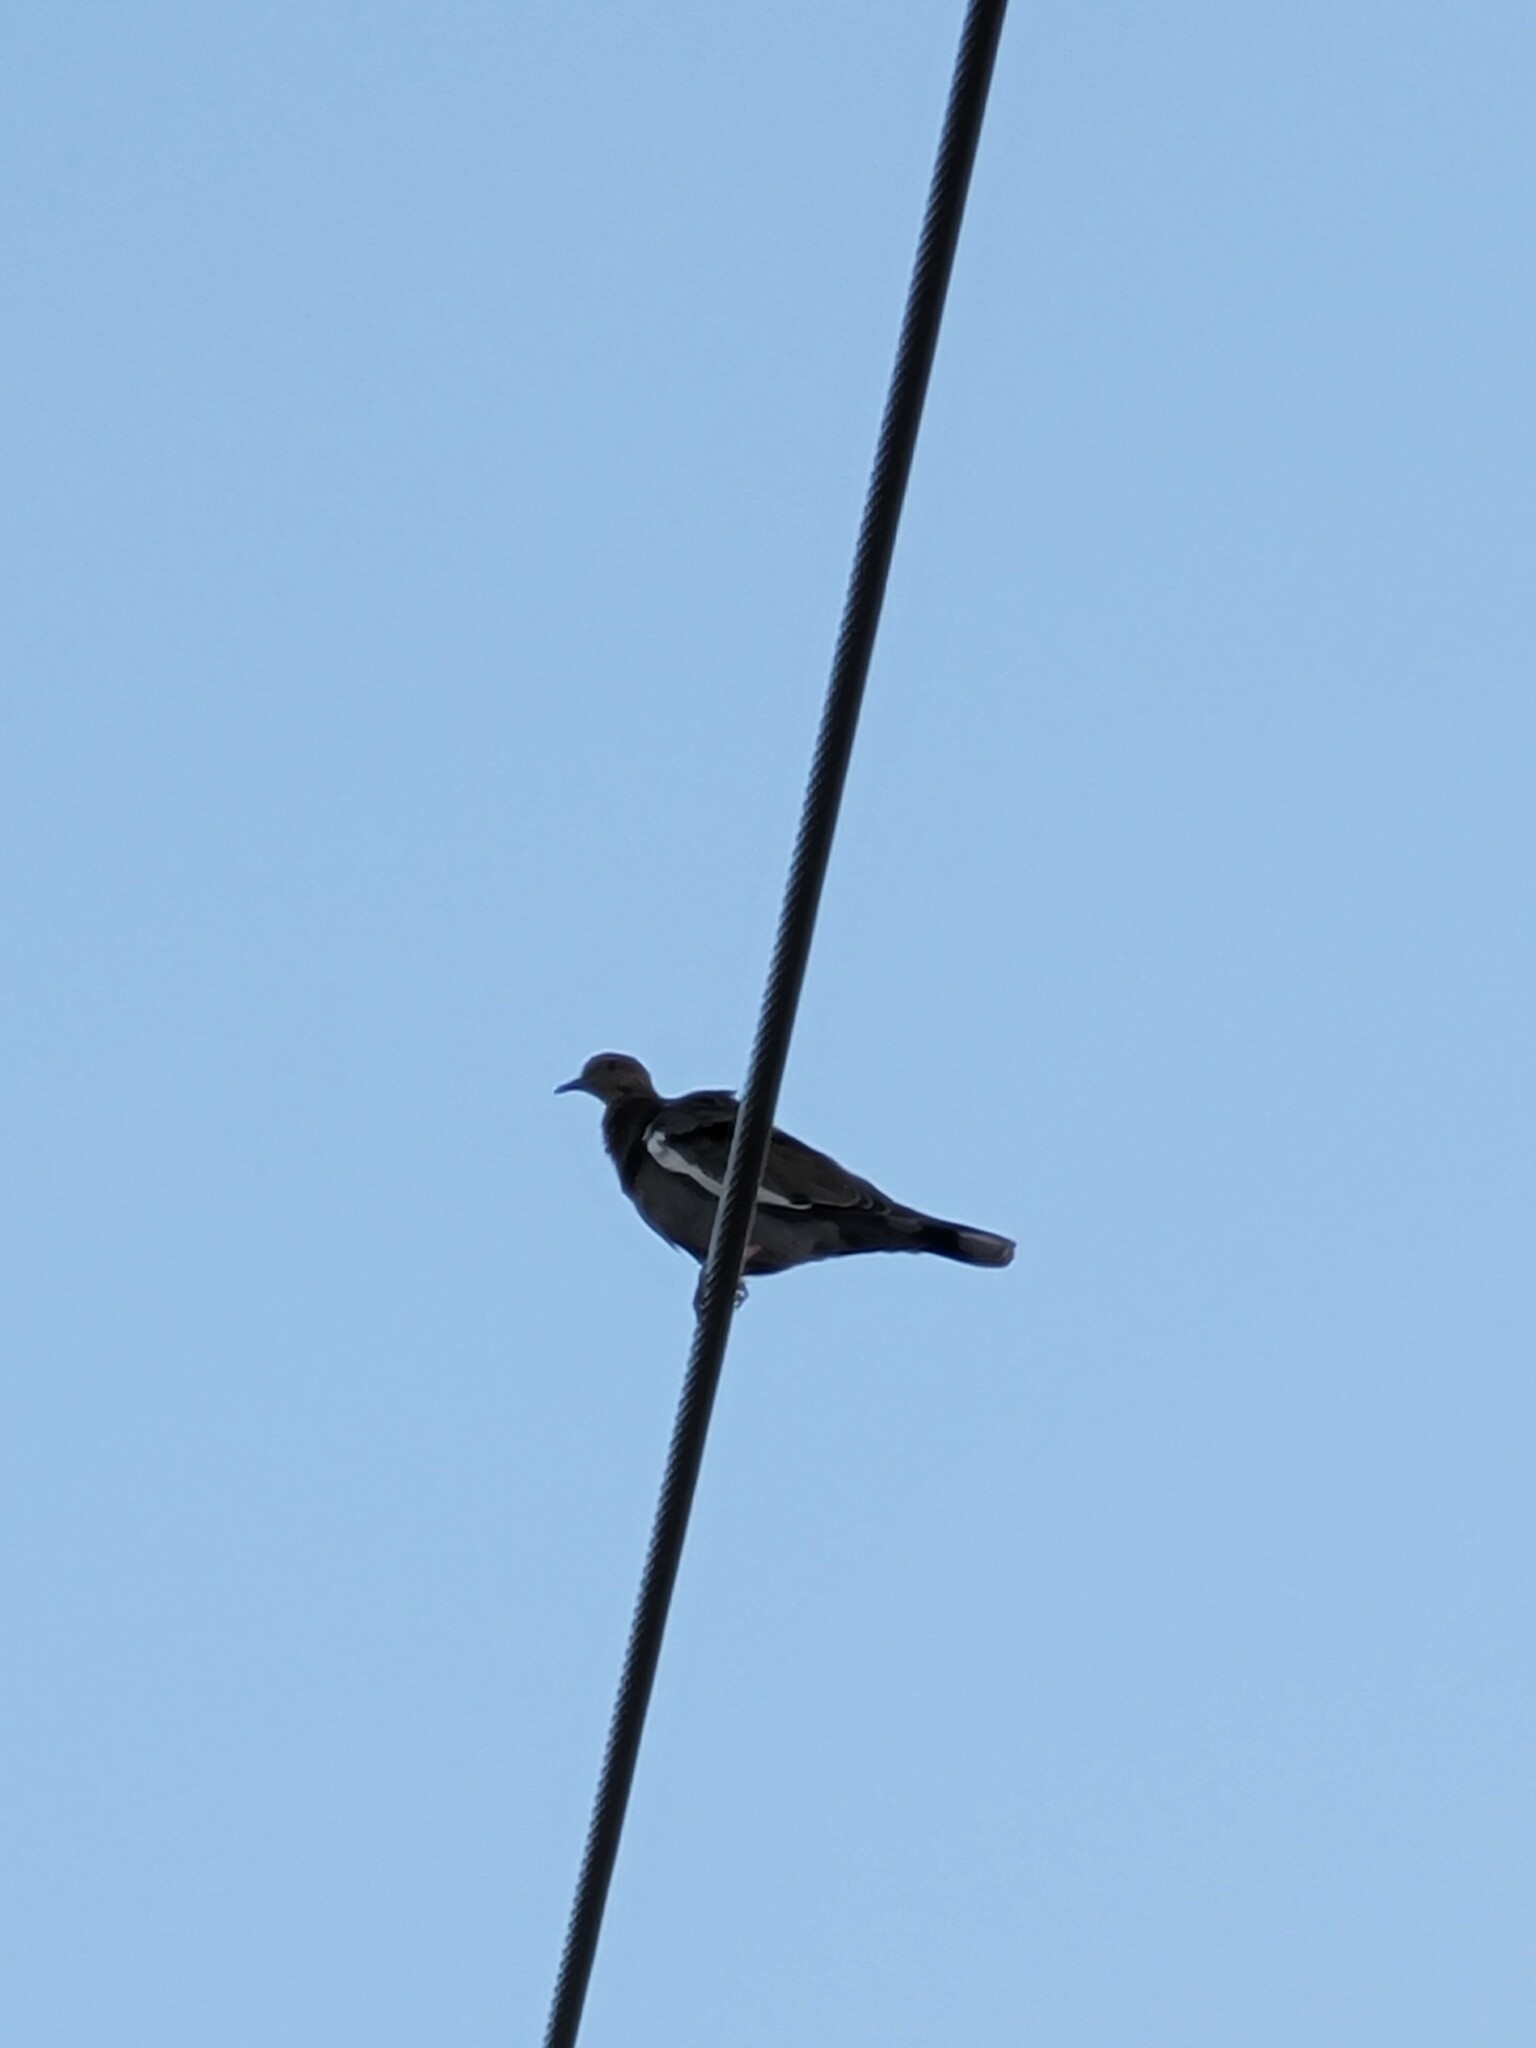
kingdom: Animalia
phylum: Chordata
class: Aves
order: Columbiformes
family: Columbidae
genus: Zenaida
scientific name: Zenaida asiatica
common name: White-winged dove
